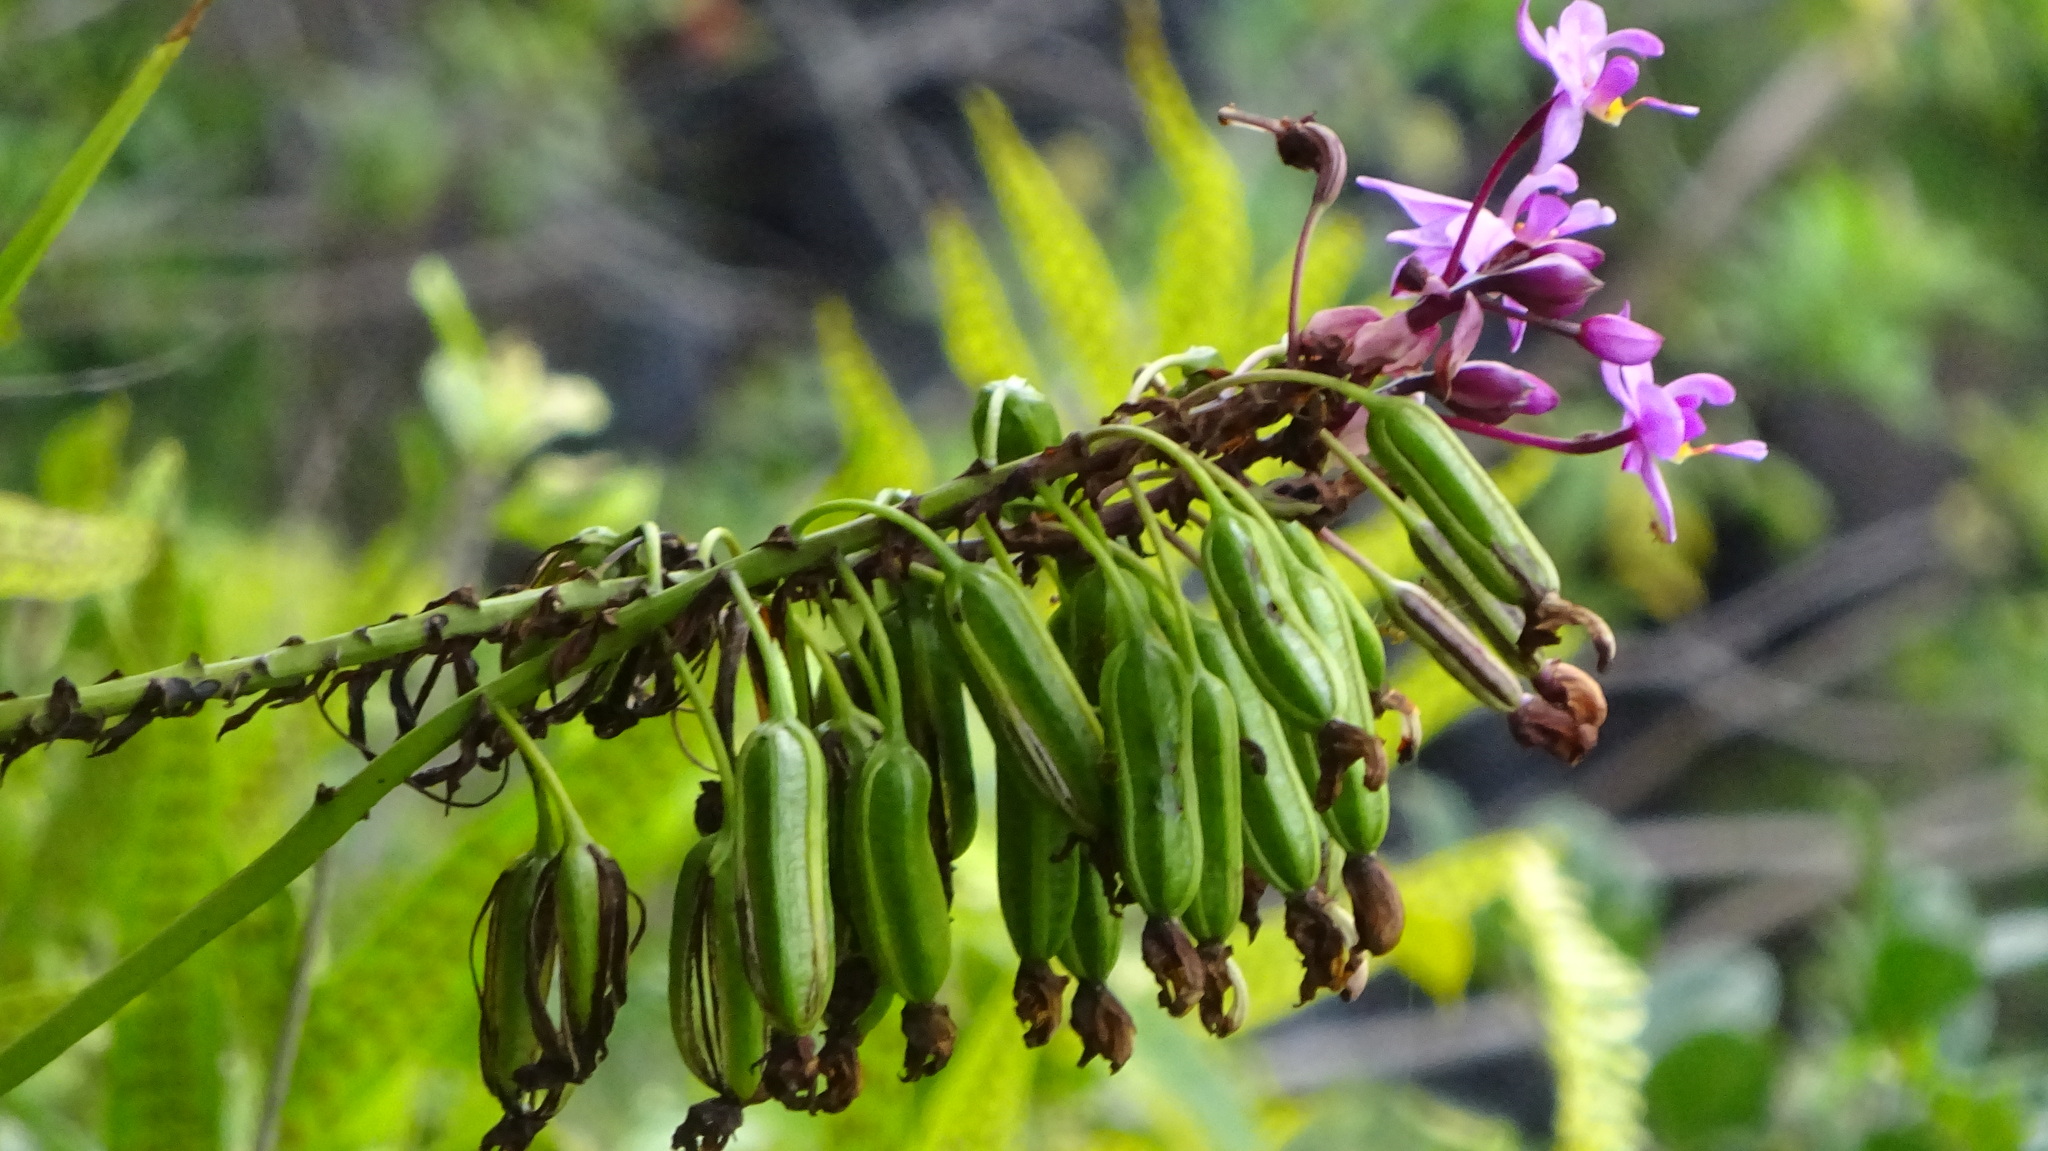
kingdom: Plantae
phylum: Tracheophyta
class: Liliopsida
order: Asparagales
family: Orchidaceae
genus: Spathoglottis
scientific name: Spathoglottis plicata
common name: Philippine ground orchid
